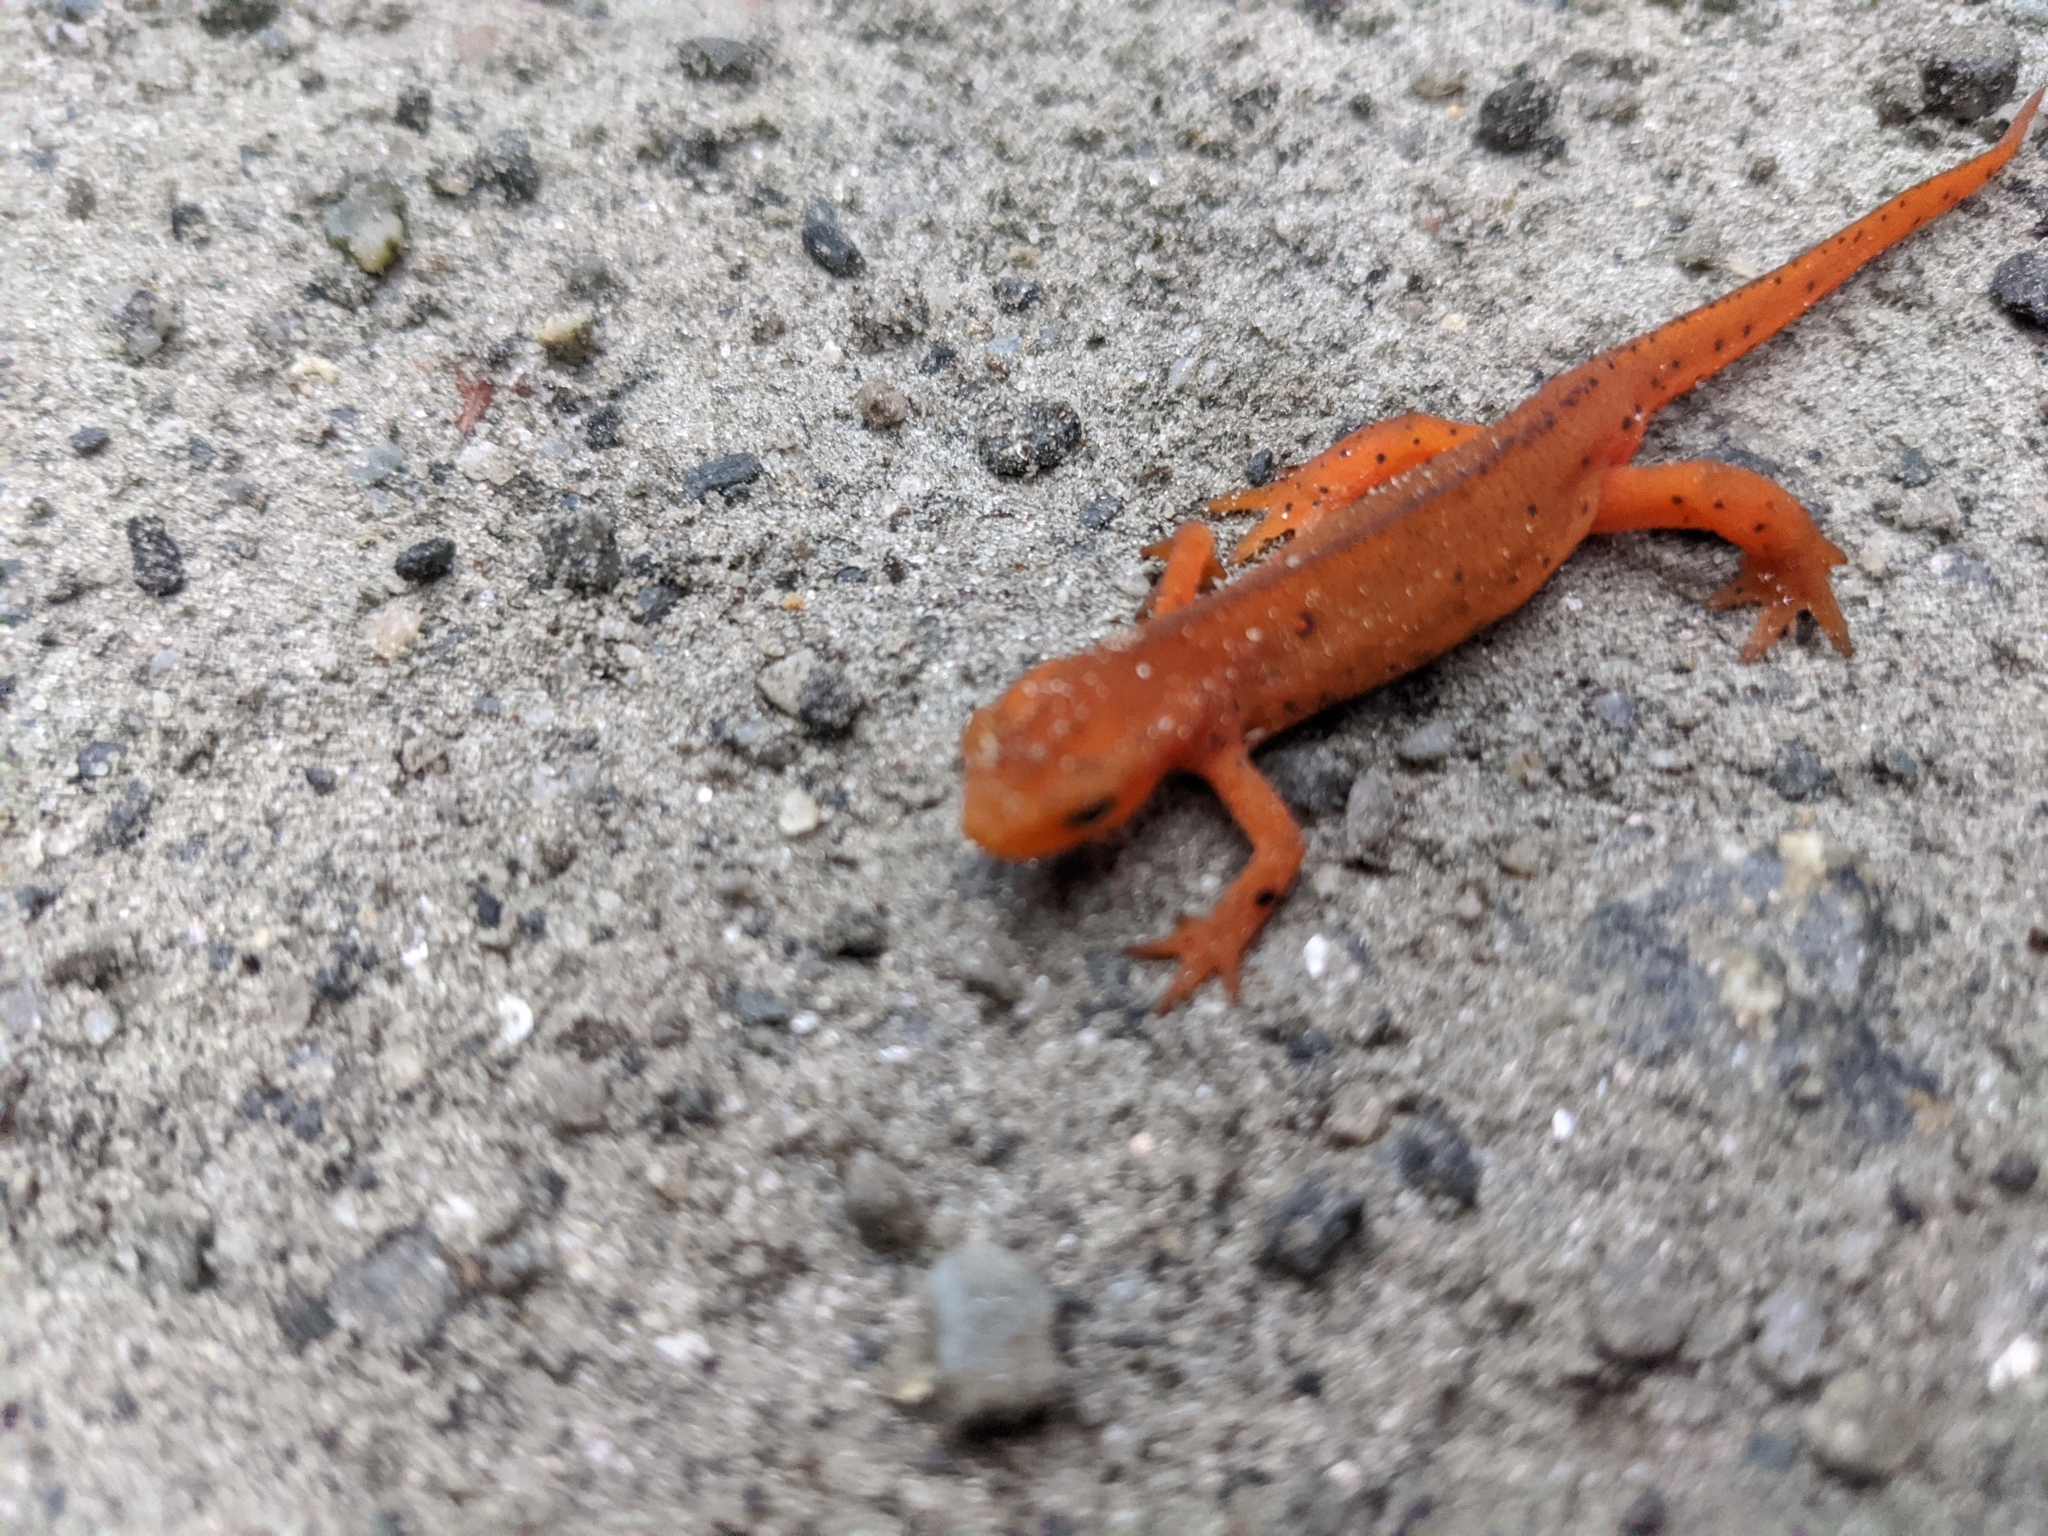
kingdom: Animalia
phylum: Chordata
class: Amphibia
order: Caudata
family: Salamandridae
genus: Notophthalmus
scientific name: Notophthalmus viridescens
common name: Eastern newt
